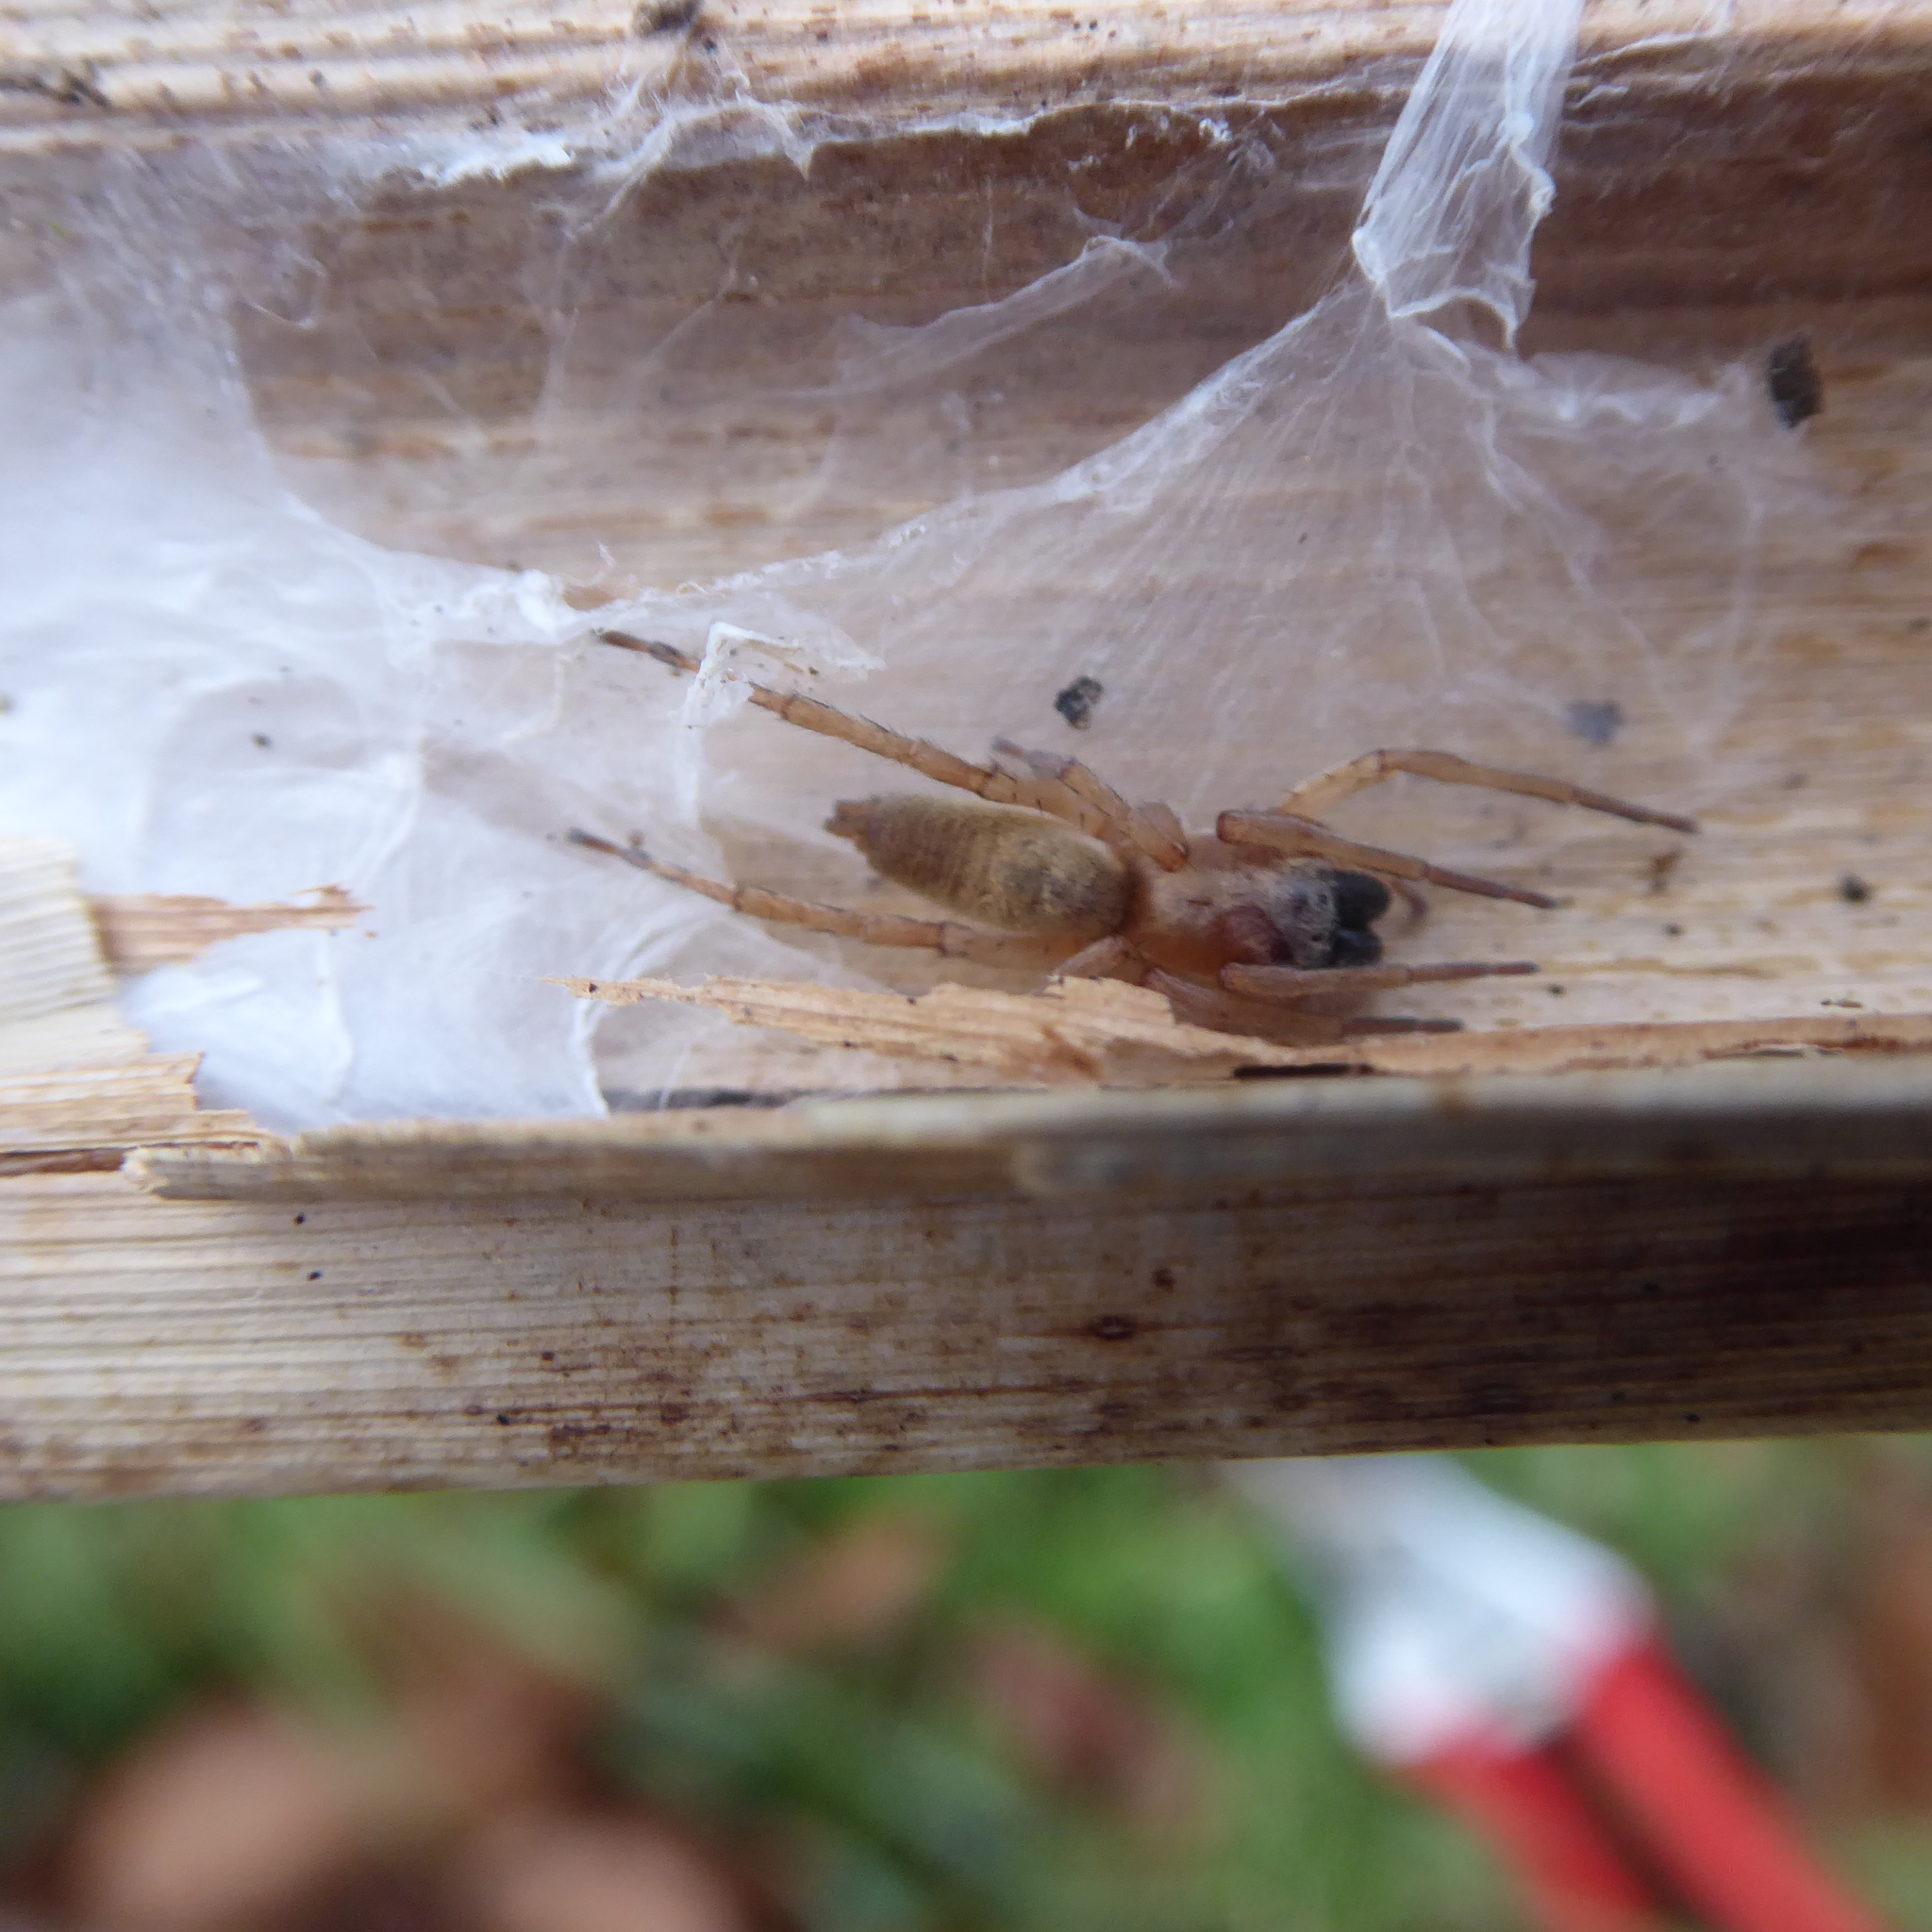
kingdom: Animalia
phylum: Arthropoda
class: Arachnida
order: Araneae
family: Clubionidae
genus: Clubiona
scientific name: Clubiona phragmitis
